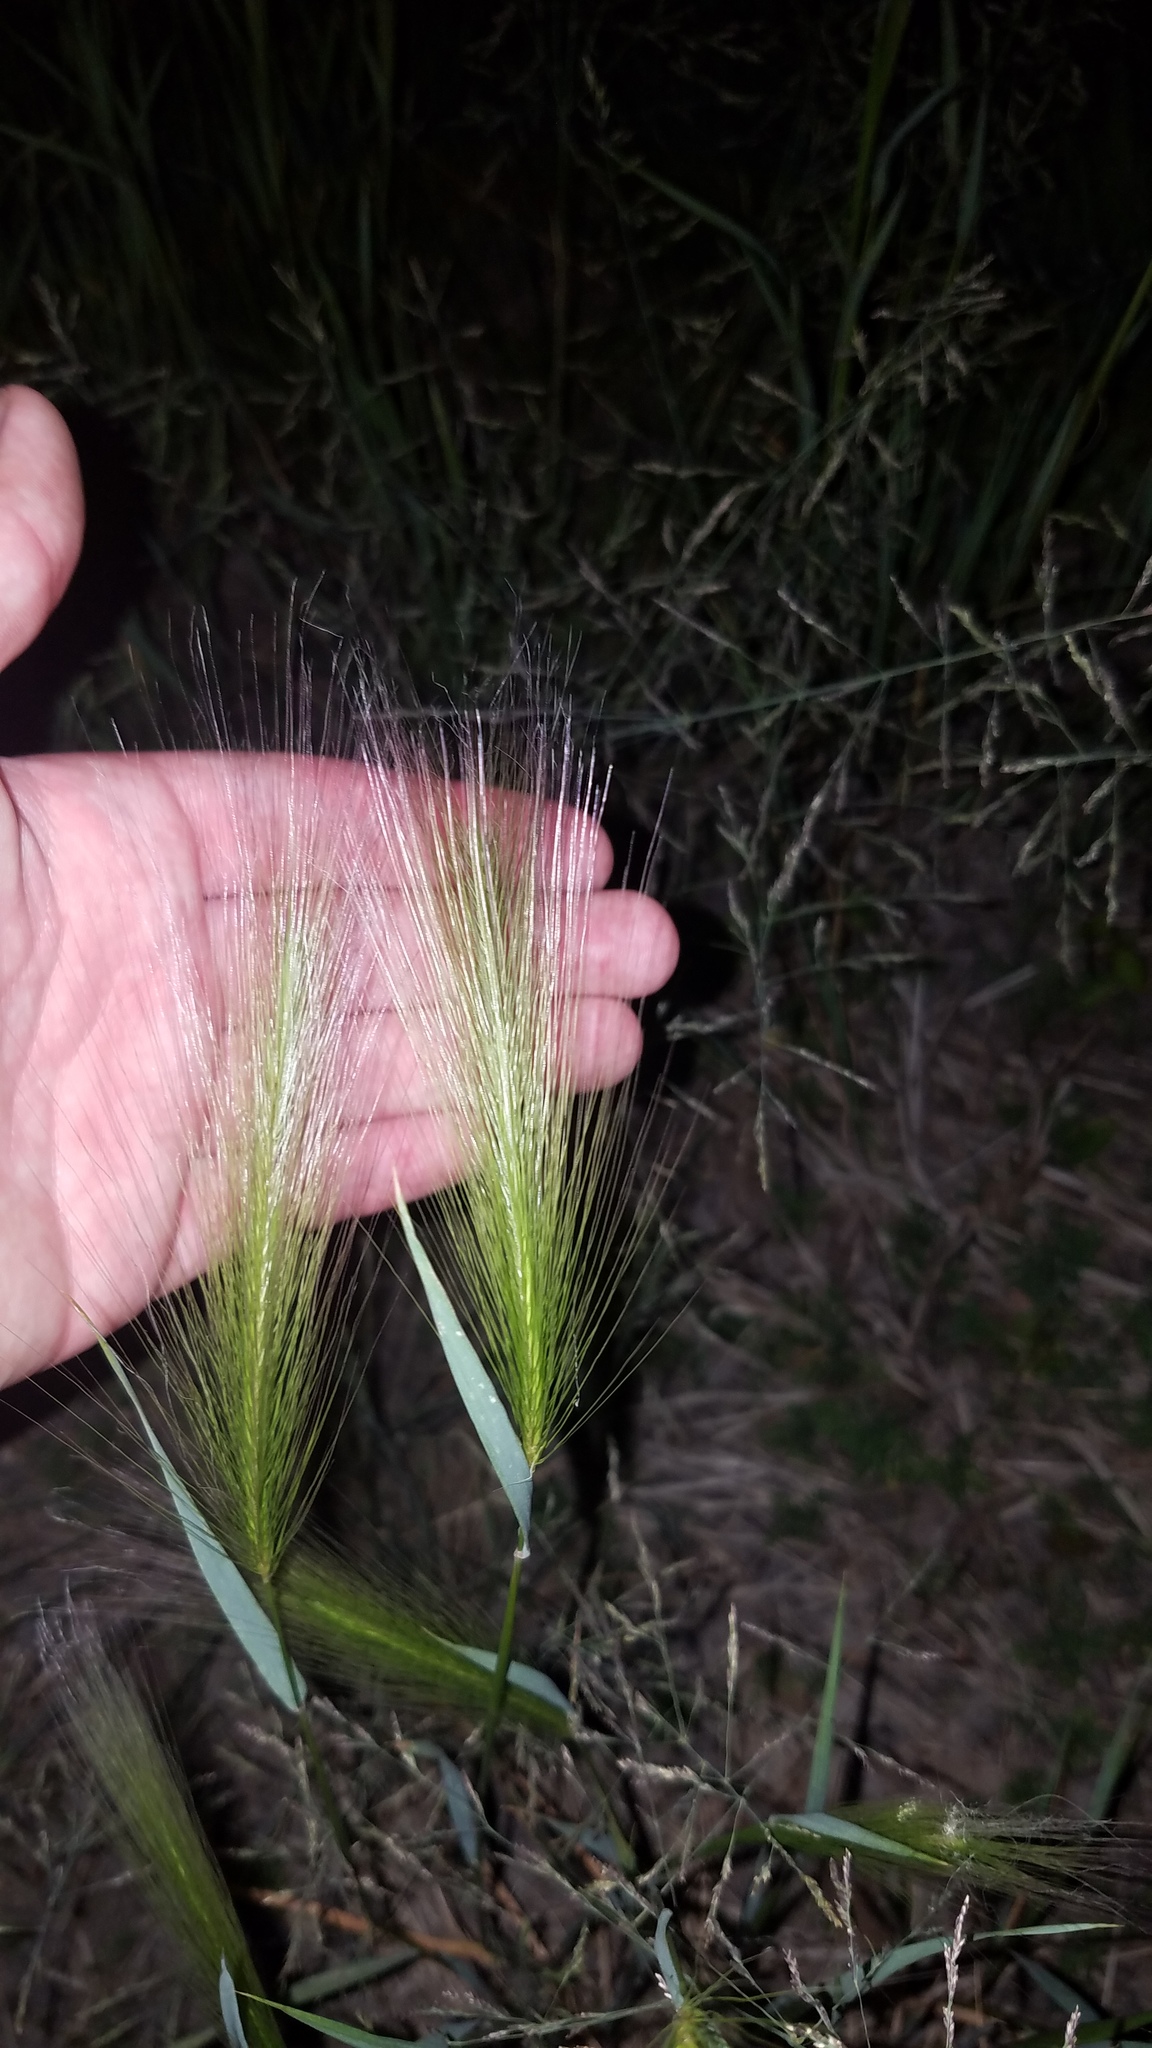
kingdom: Plantae
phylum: Tracheophyta
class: Liliopsida
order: Poales
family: Poaceae
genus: Hordeum
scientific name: Hordeum jubatum
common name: Foxtail barley
